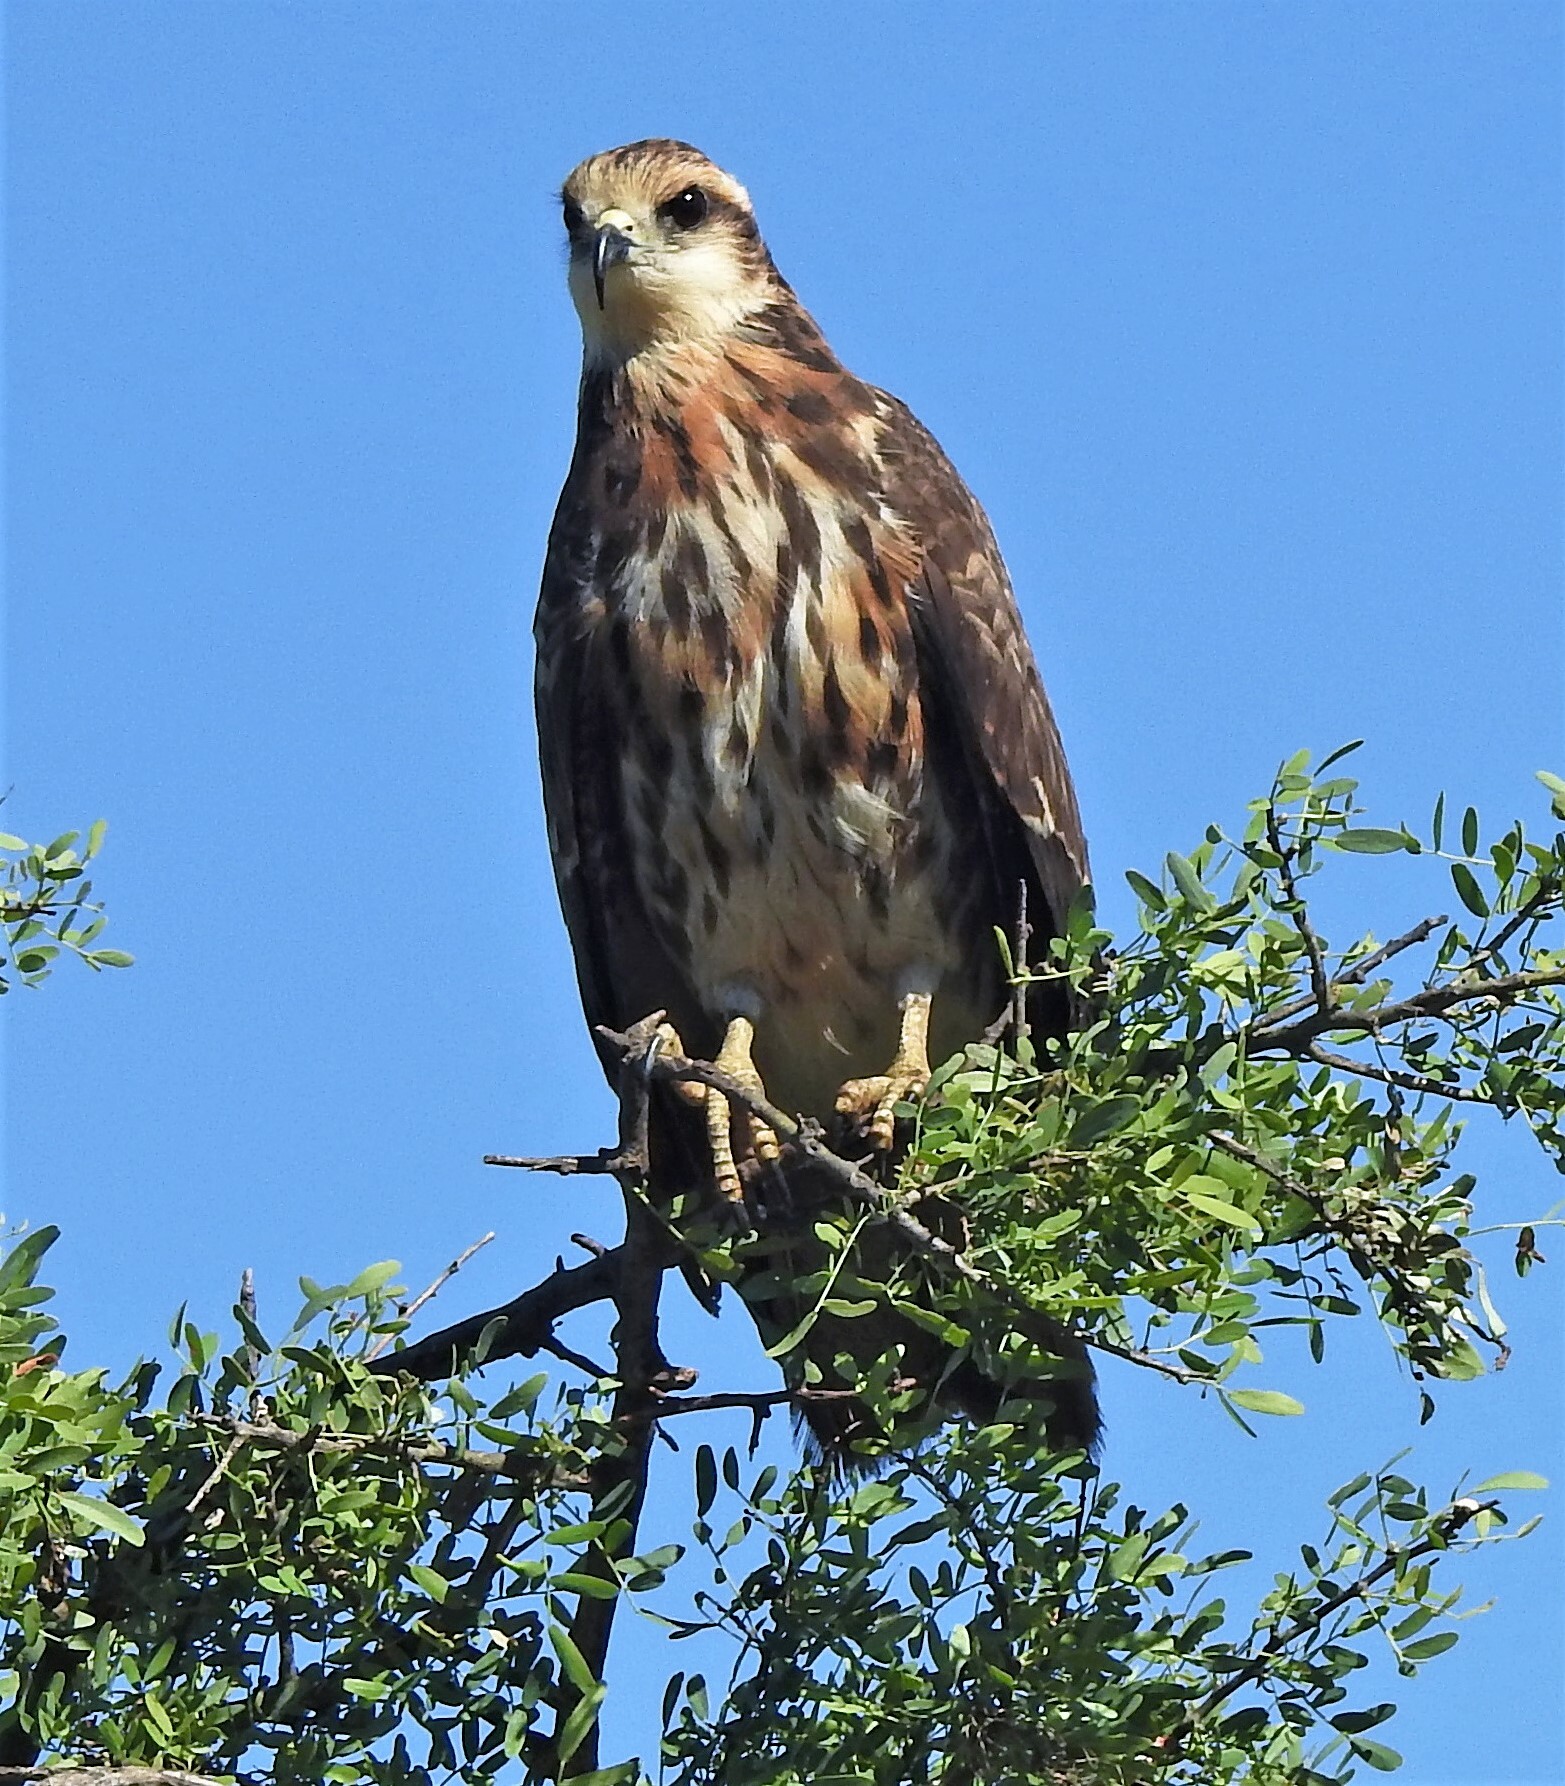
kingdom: Animalia
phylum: Chordata
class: Aves
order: Accipitriformes
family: Accipitridae
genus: Rostrhamus
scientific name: Rostrhamus sociabilis
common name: Snail kite
